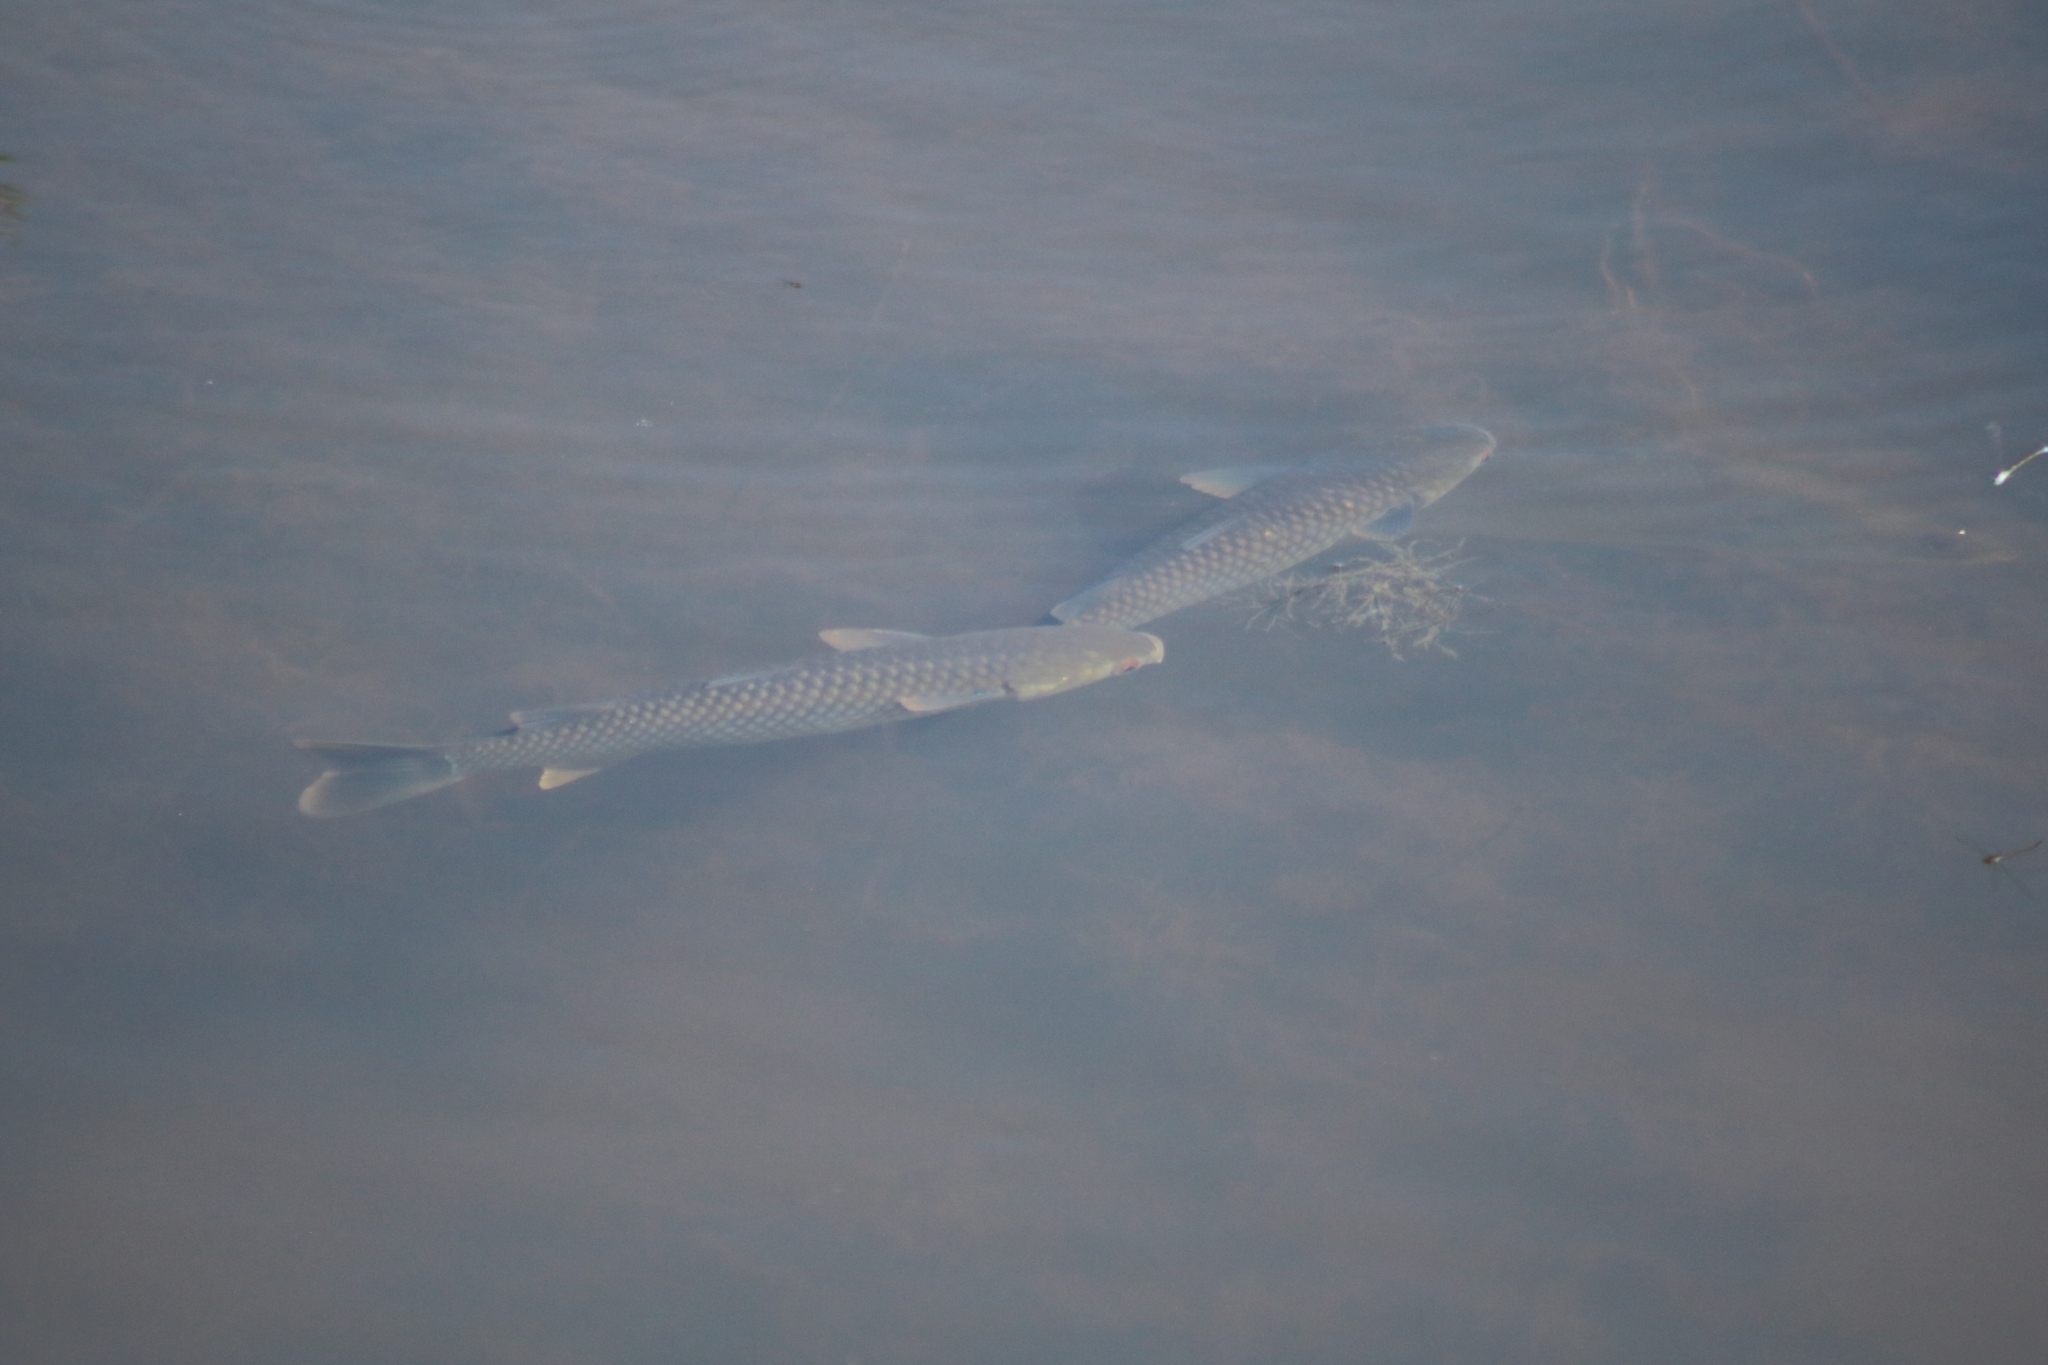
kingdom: Animalia
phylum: Chordata
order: Mugiliformes
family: Mugilidae
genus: Planiliza
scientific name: Planiliza alata
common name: Diamond mullet
